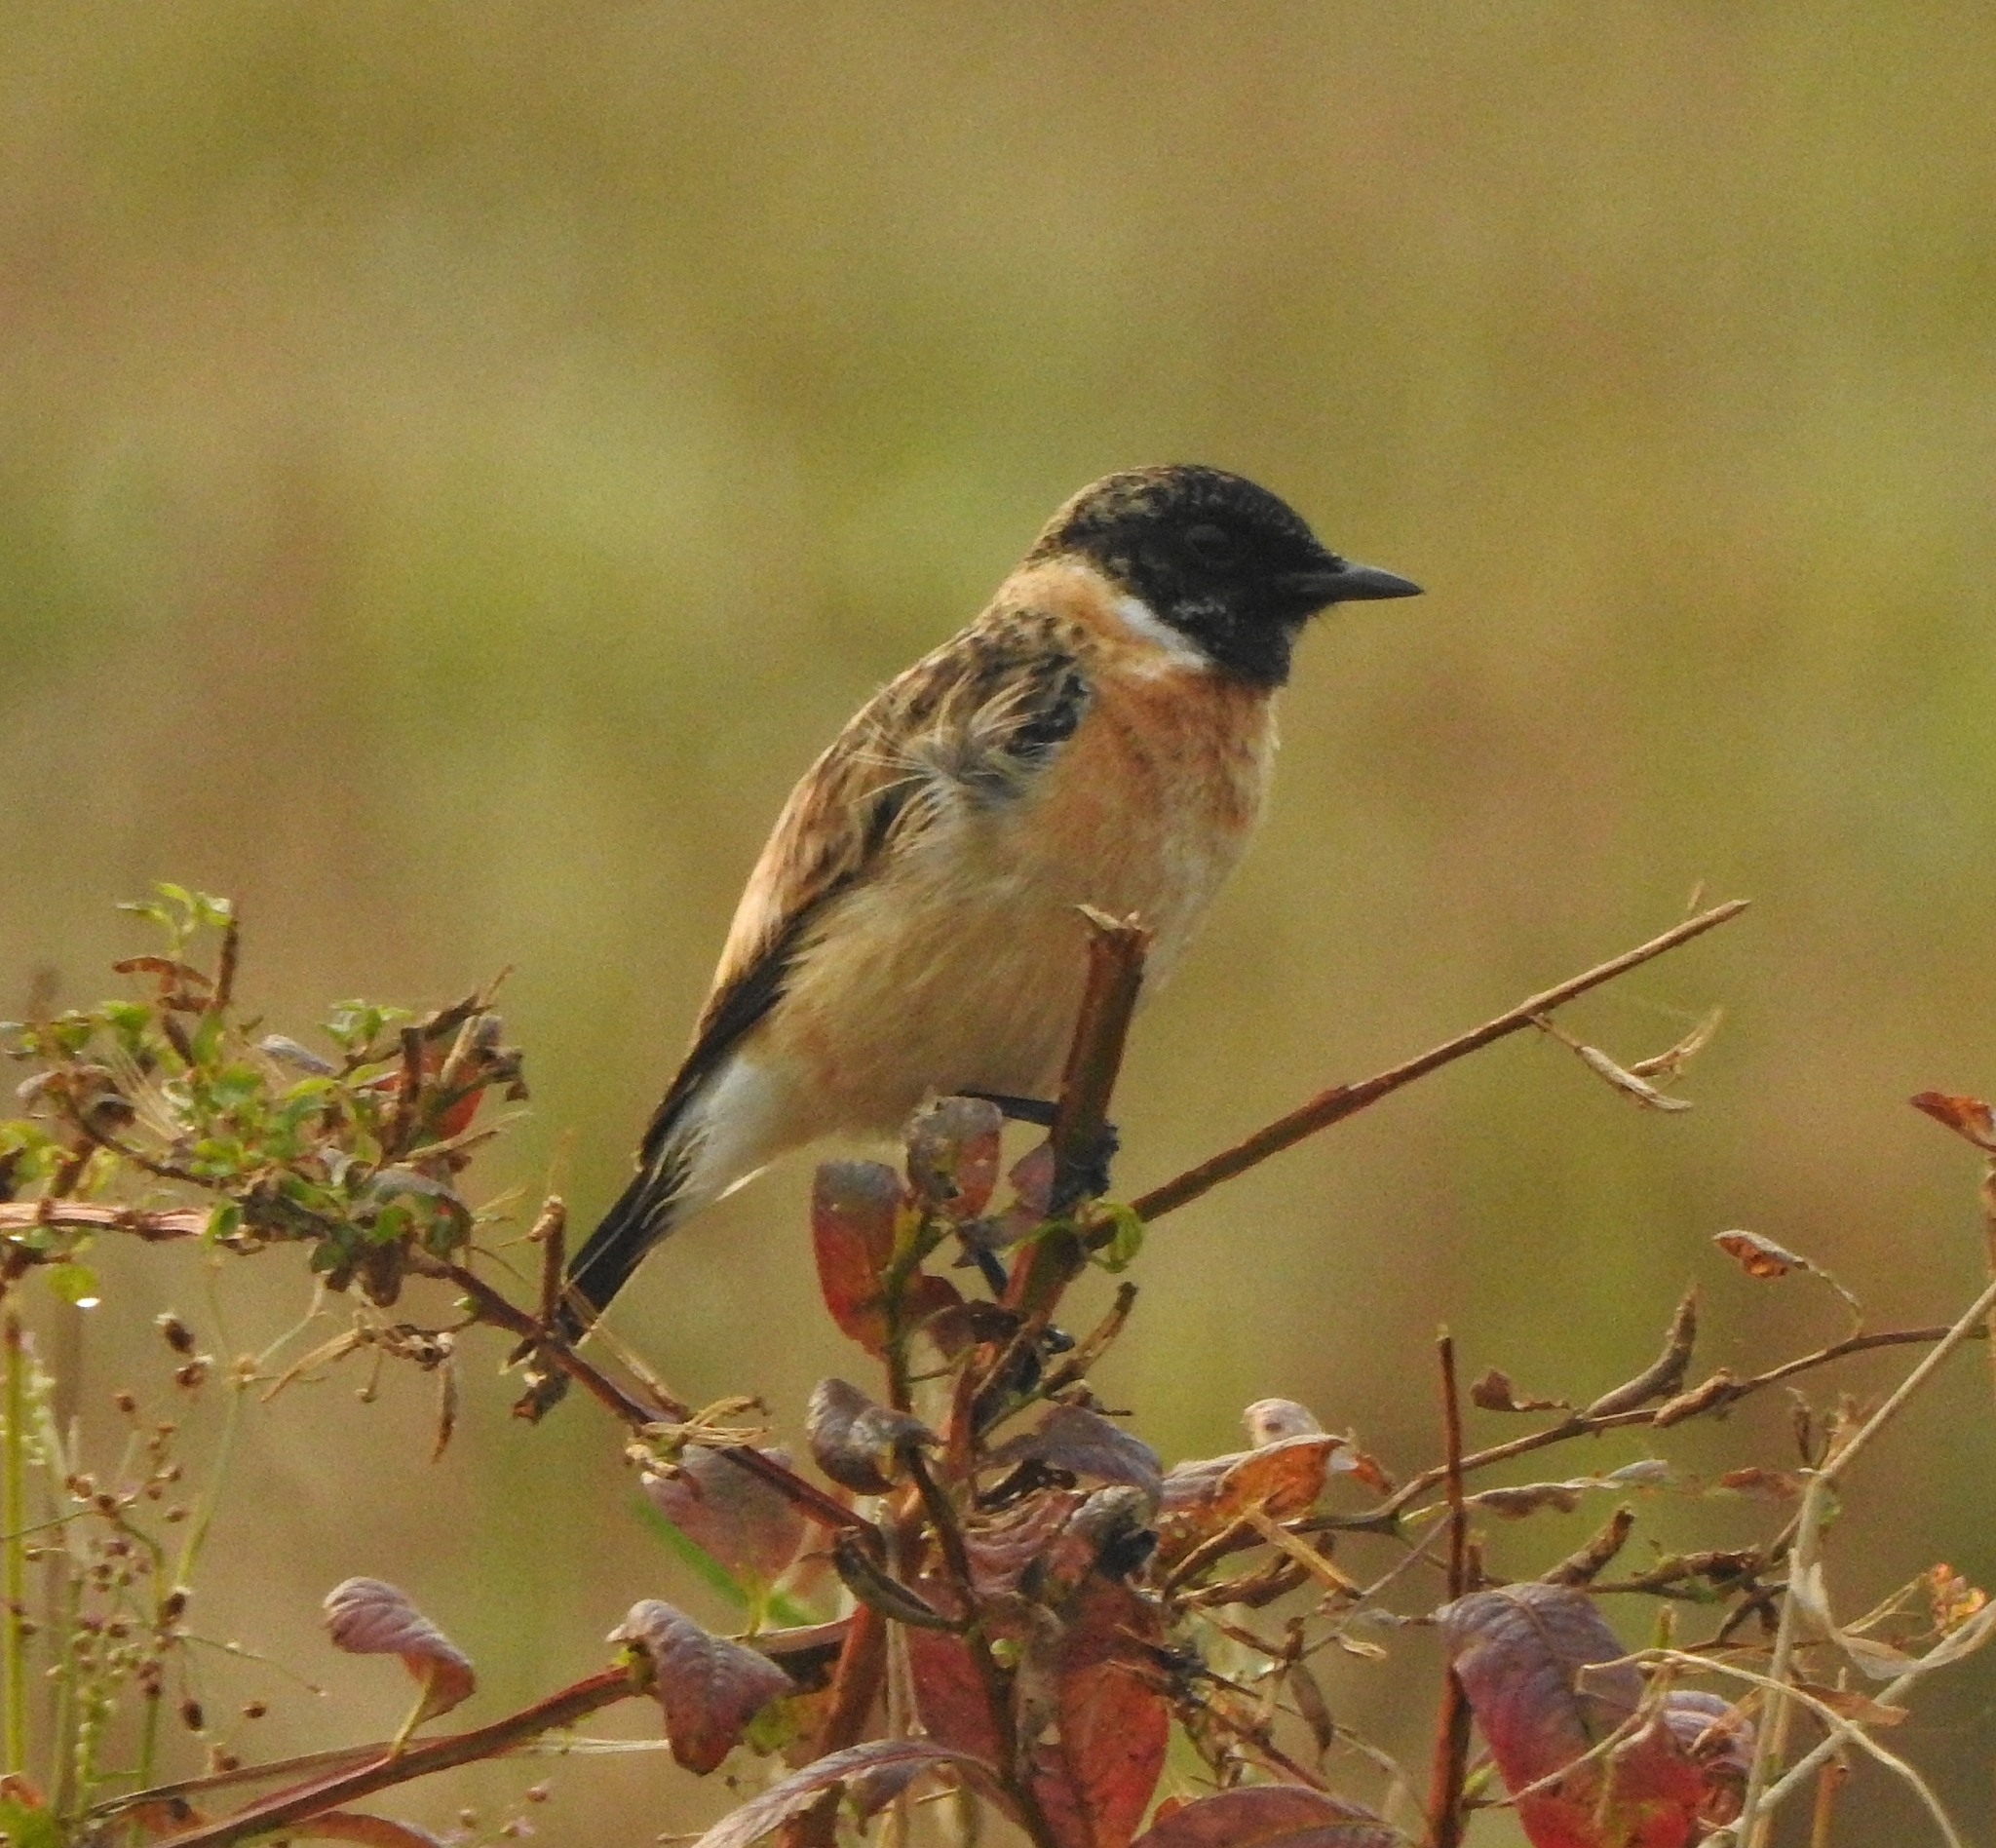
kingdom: Animalia
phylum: Chordata
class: Aves
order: Passeriformes
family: Muscicapidae
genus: Saxicola
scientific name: Saxicola maurus
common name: Siberian stonechat
